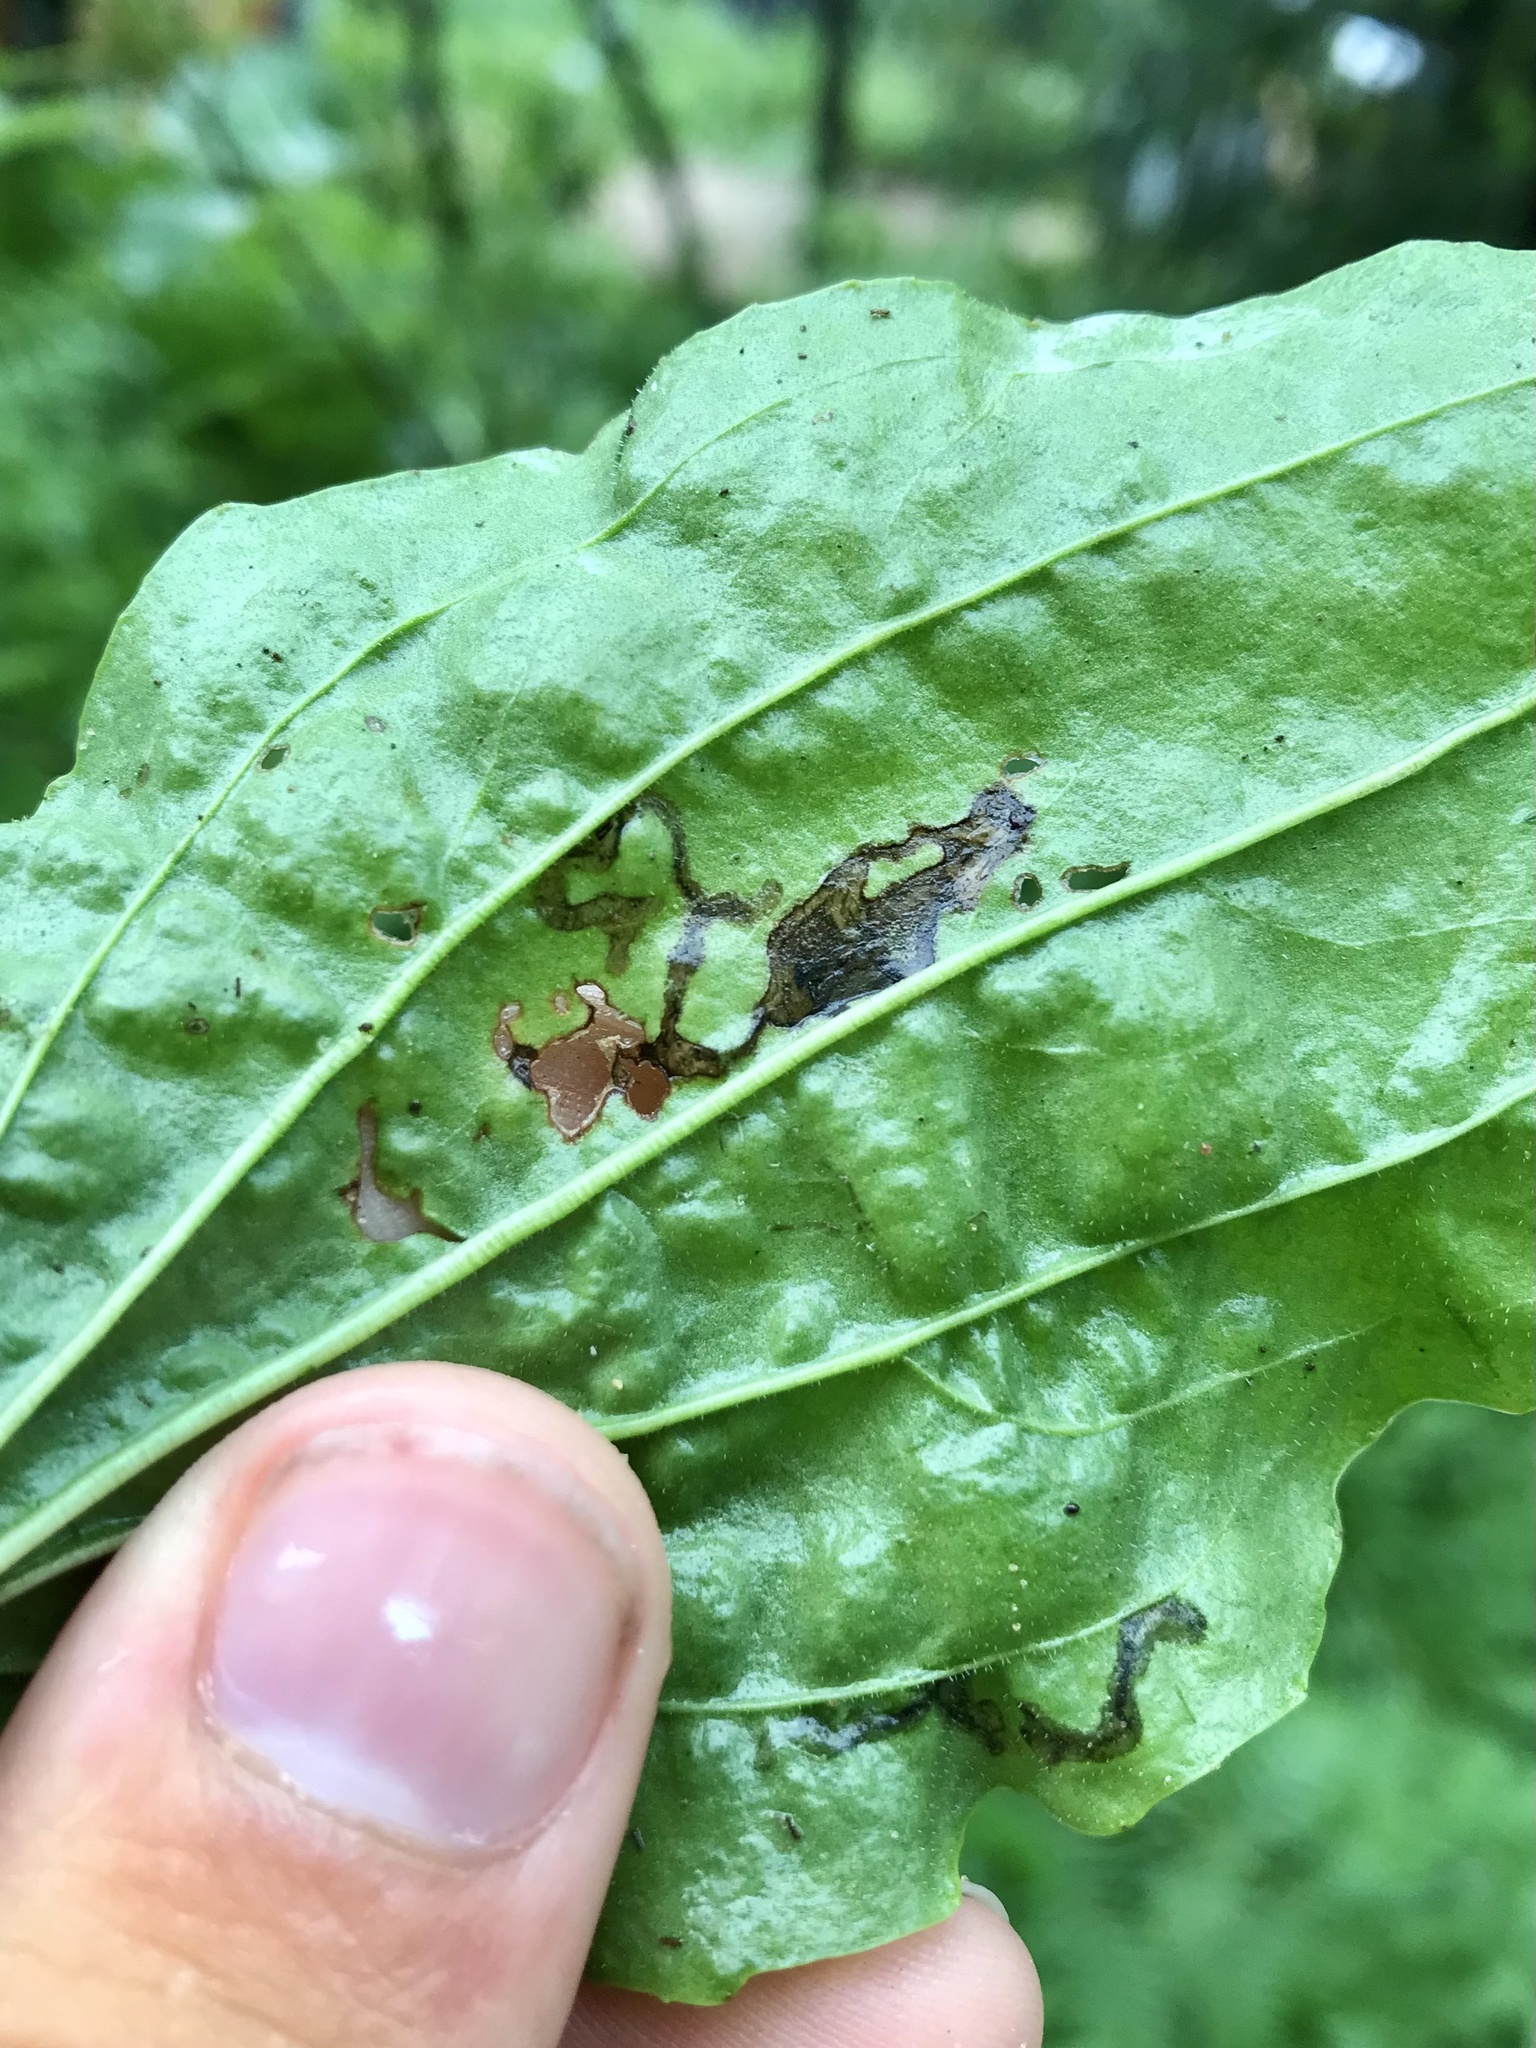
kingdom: Animalia
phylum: Arthropoda
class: Insecta
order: Coleoptera
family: Chrysomelidae
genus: Dibolia
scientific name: Dibolia borealis
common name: Northern plantain flea beetle
